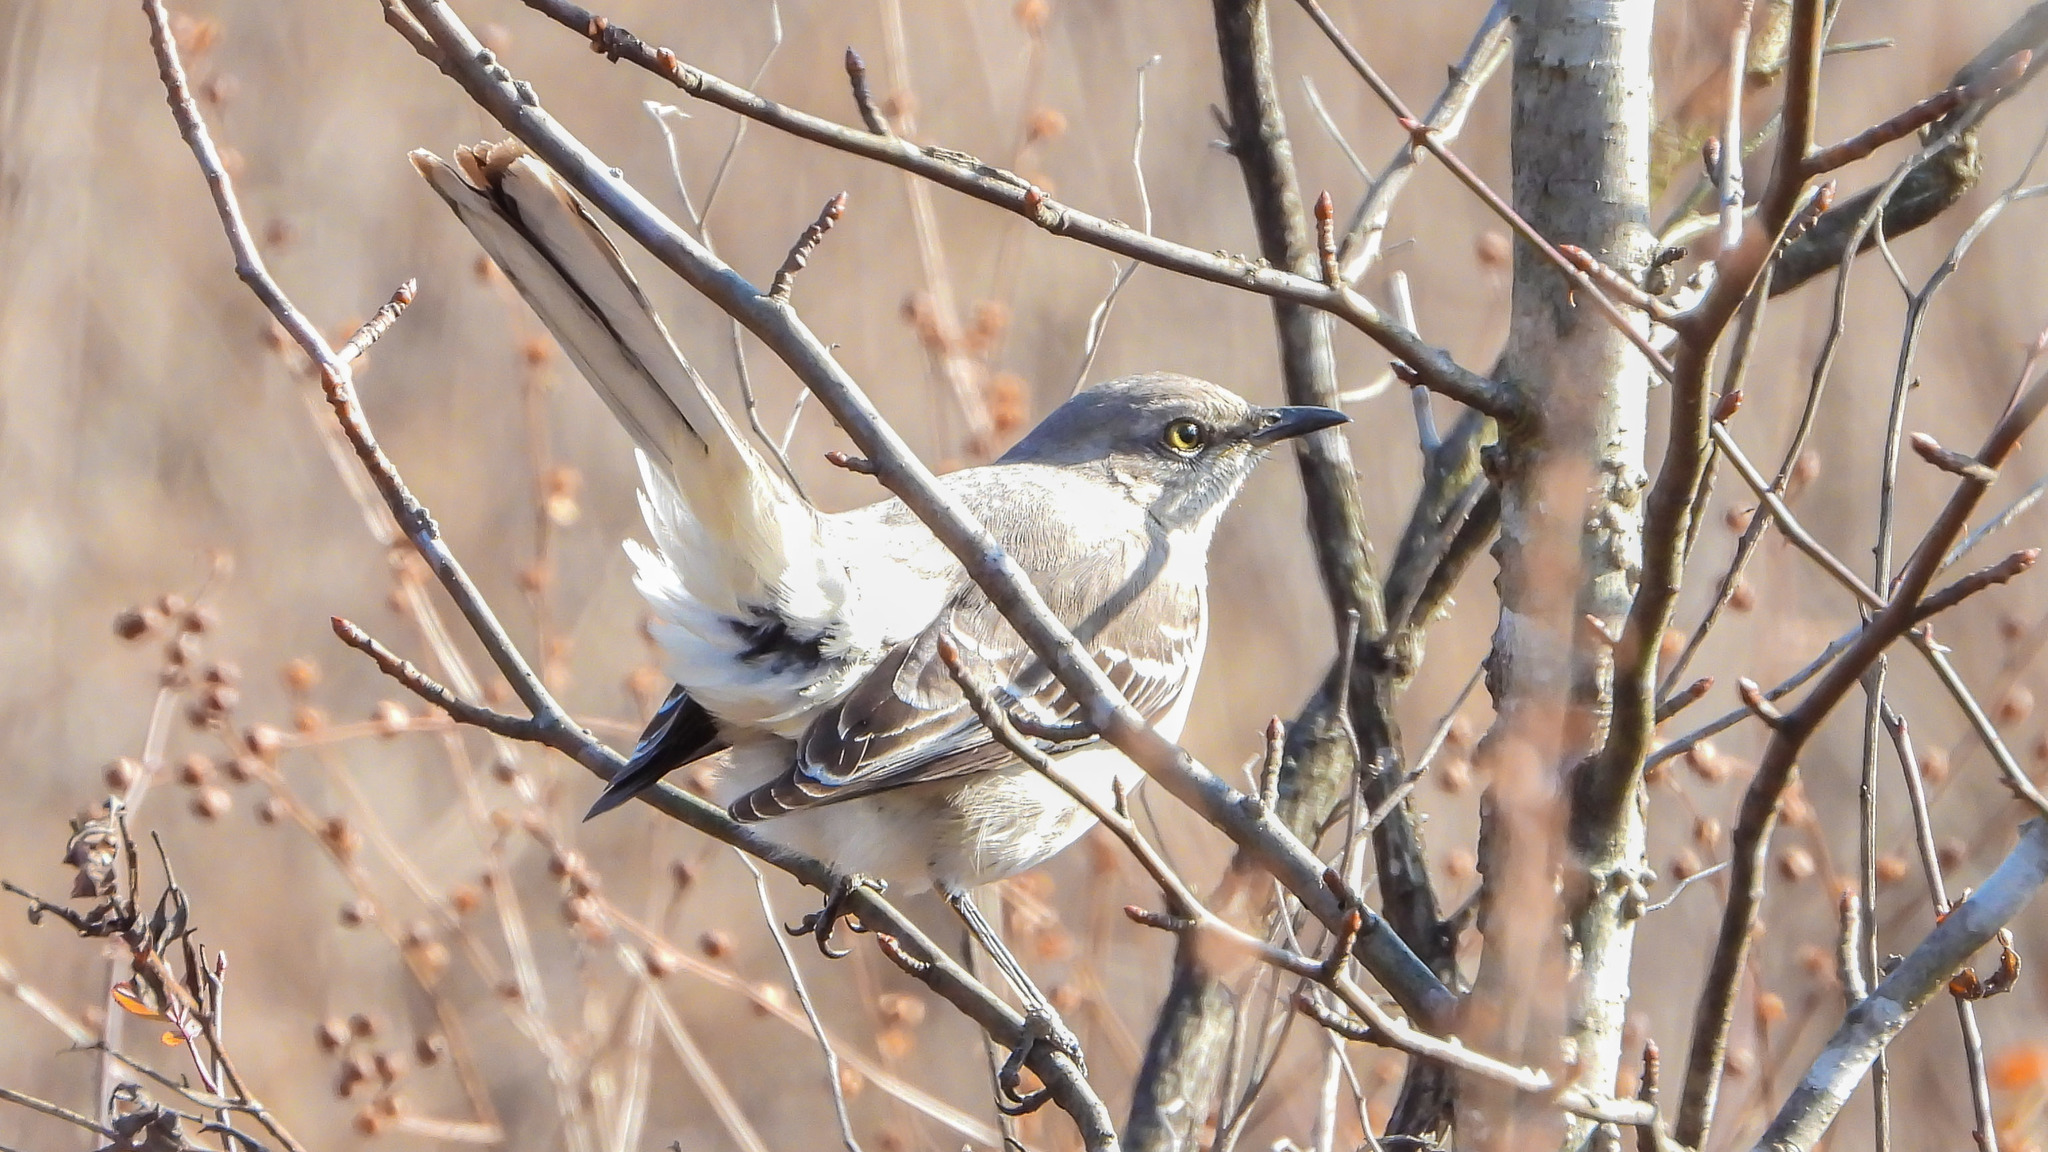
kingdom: Animalia
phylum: Chordata
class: Aves
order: Passeriformes
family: Mimidae
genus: Mimus
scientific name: Mimus polyglottos
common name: Northern mockingbird
